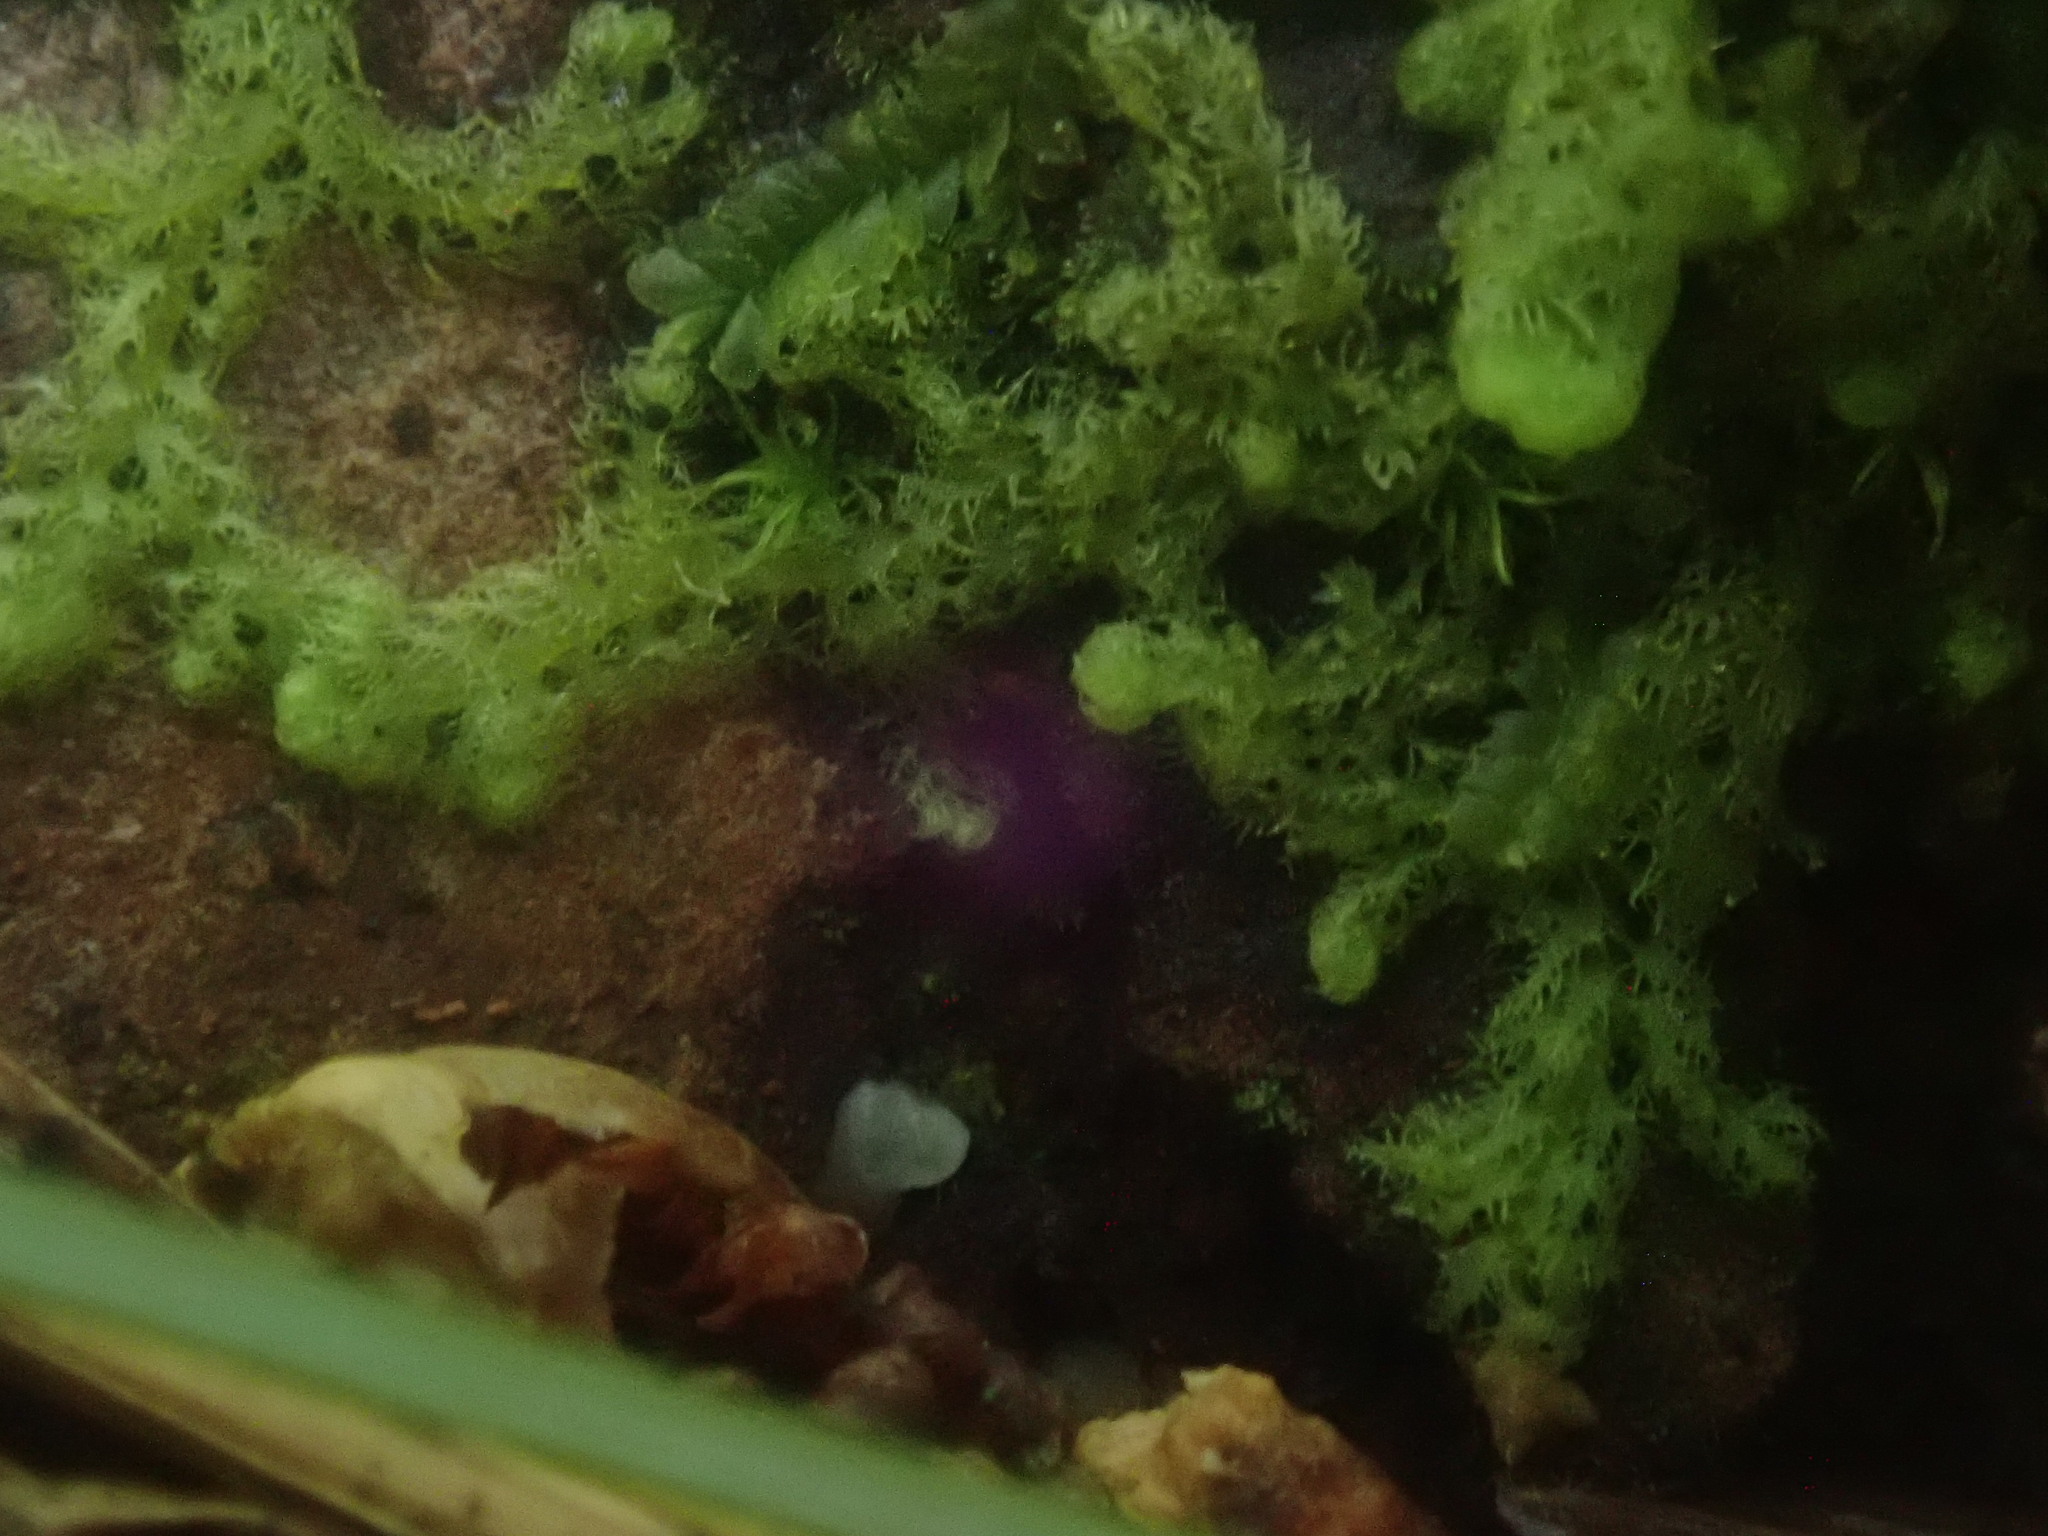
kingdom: Plantae
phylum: Marchantiophyta
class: Jungermanniopsida
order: Ptilidiales
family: Ptilidiaceae
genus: Ptilidium
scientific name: Ptilidium pulcherrimum
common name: Tree fringewort
